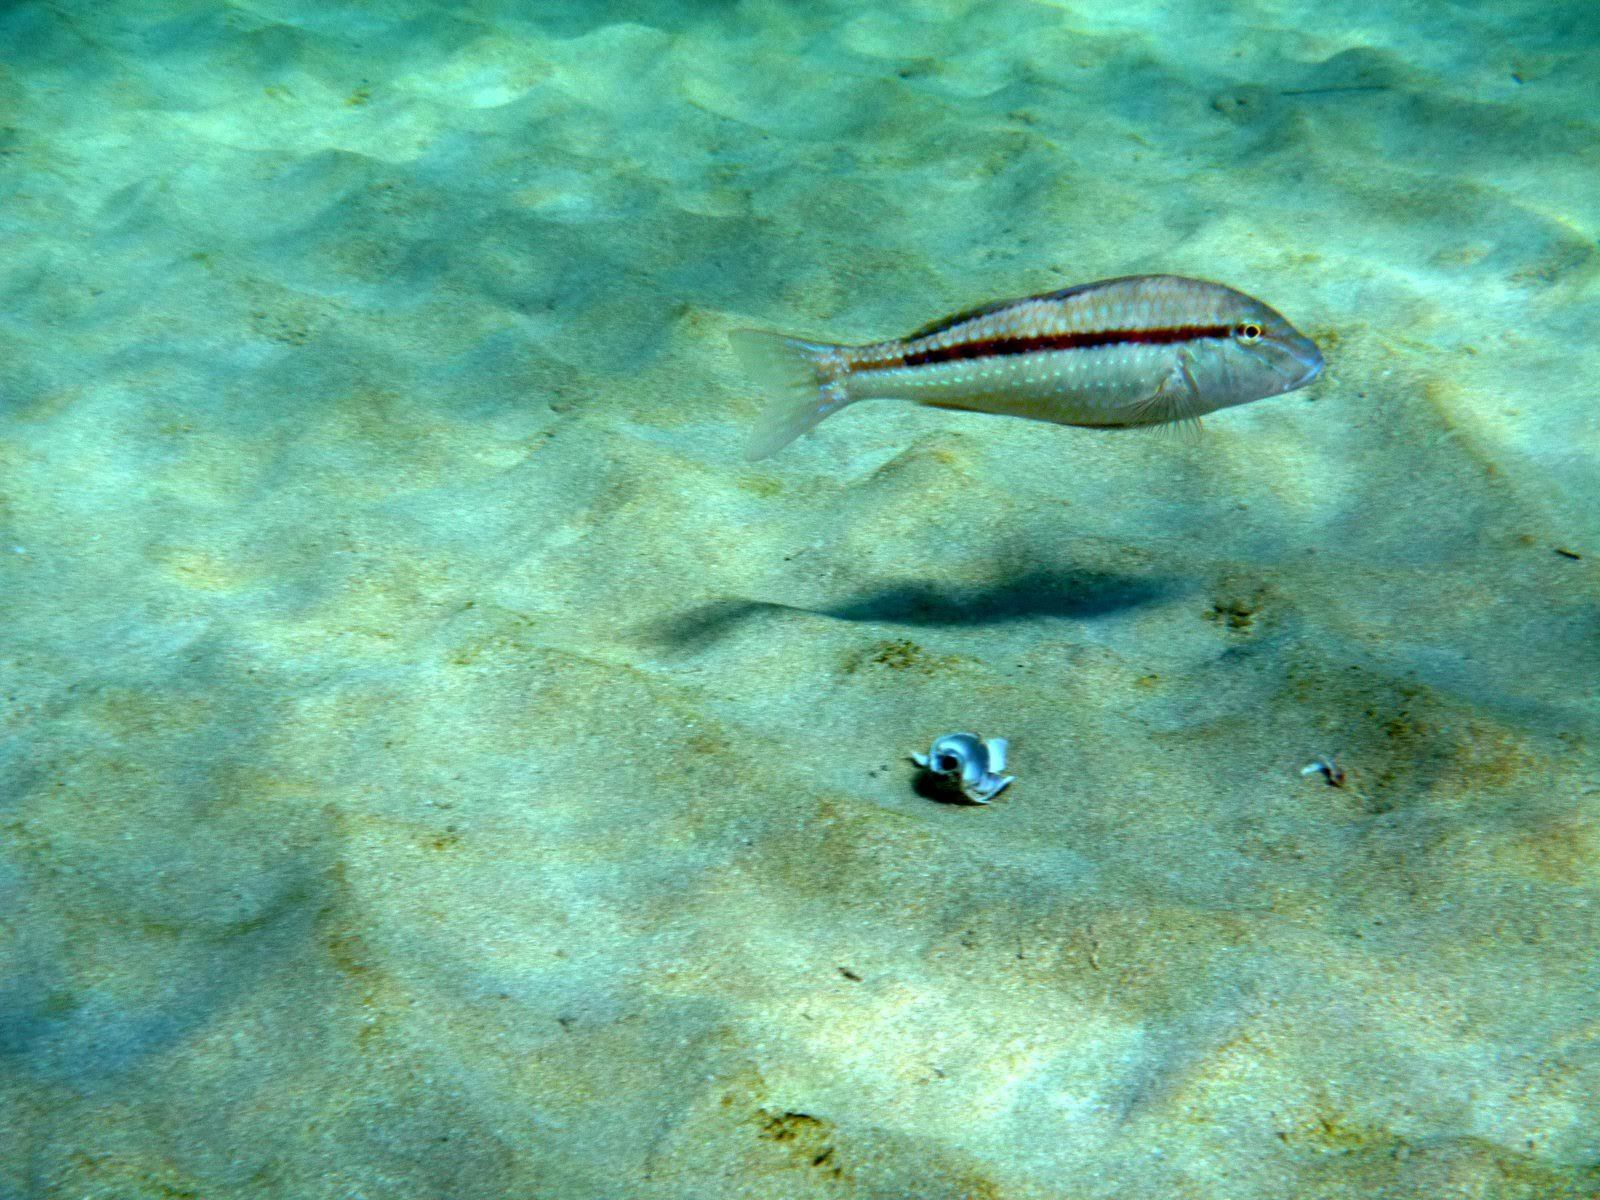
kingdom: Animalia
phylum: Chordata
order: Perciformes
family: Mullidae
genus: Upeneichthys
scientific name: Upeneichthys vlamingii
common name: Red mullet
